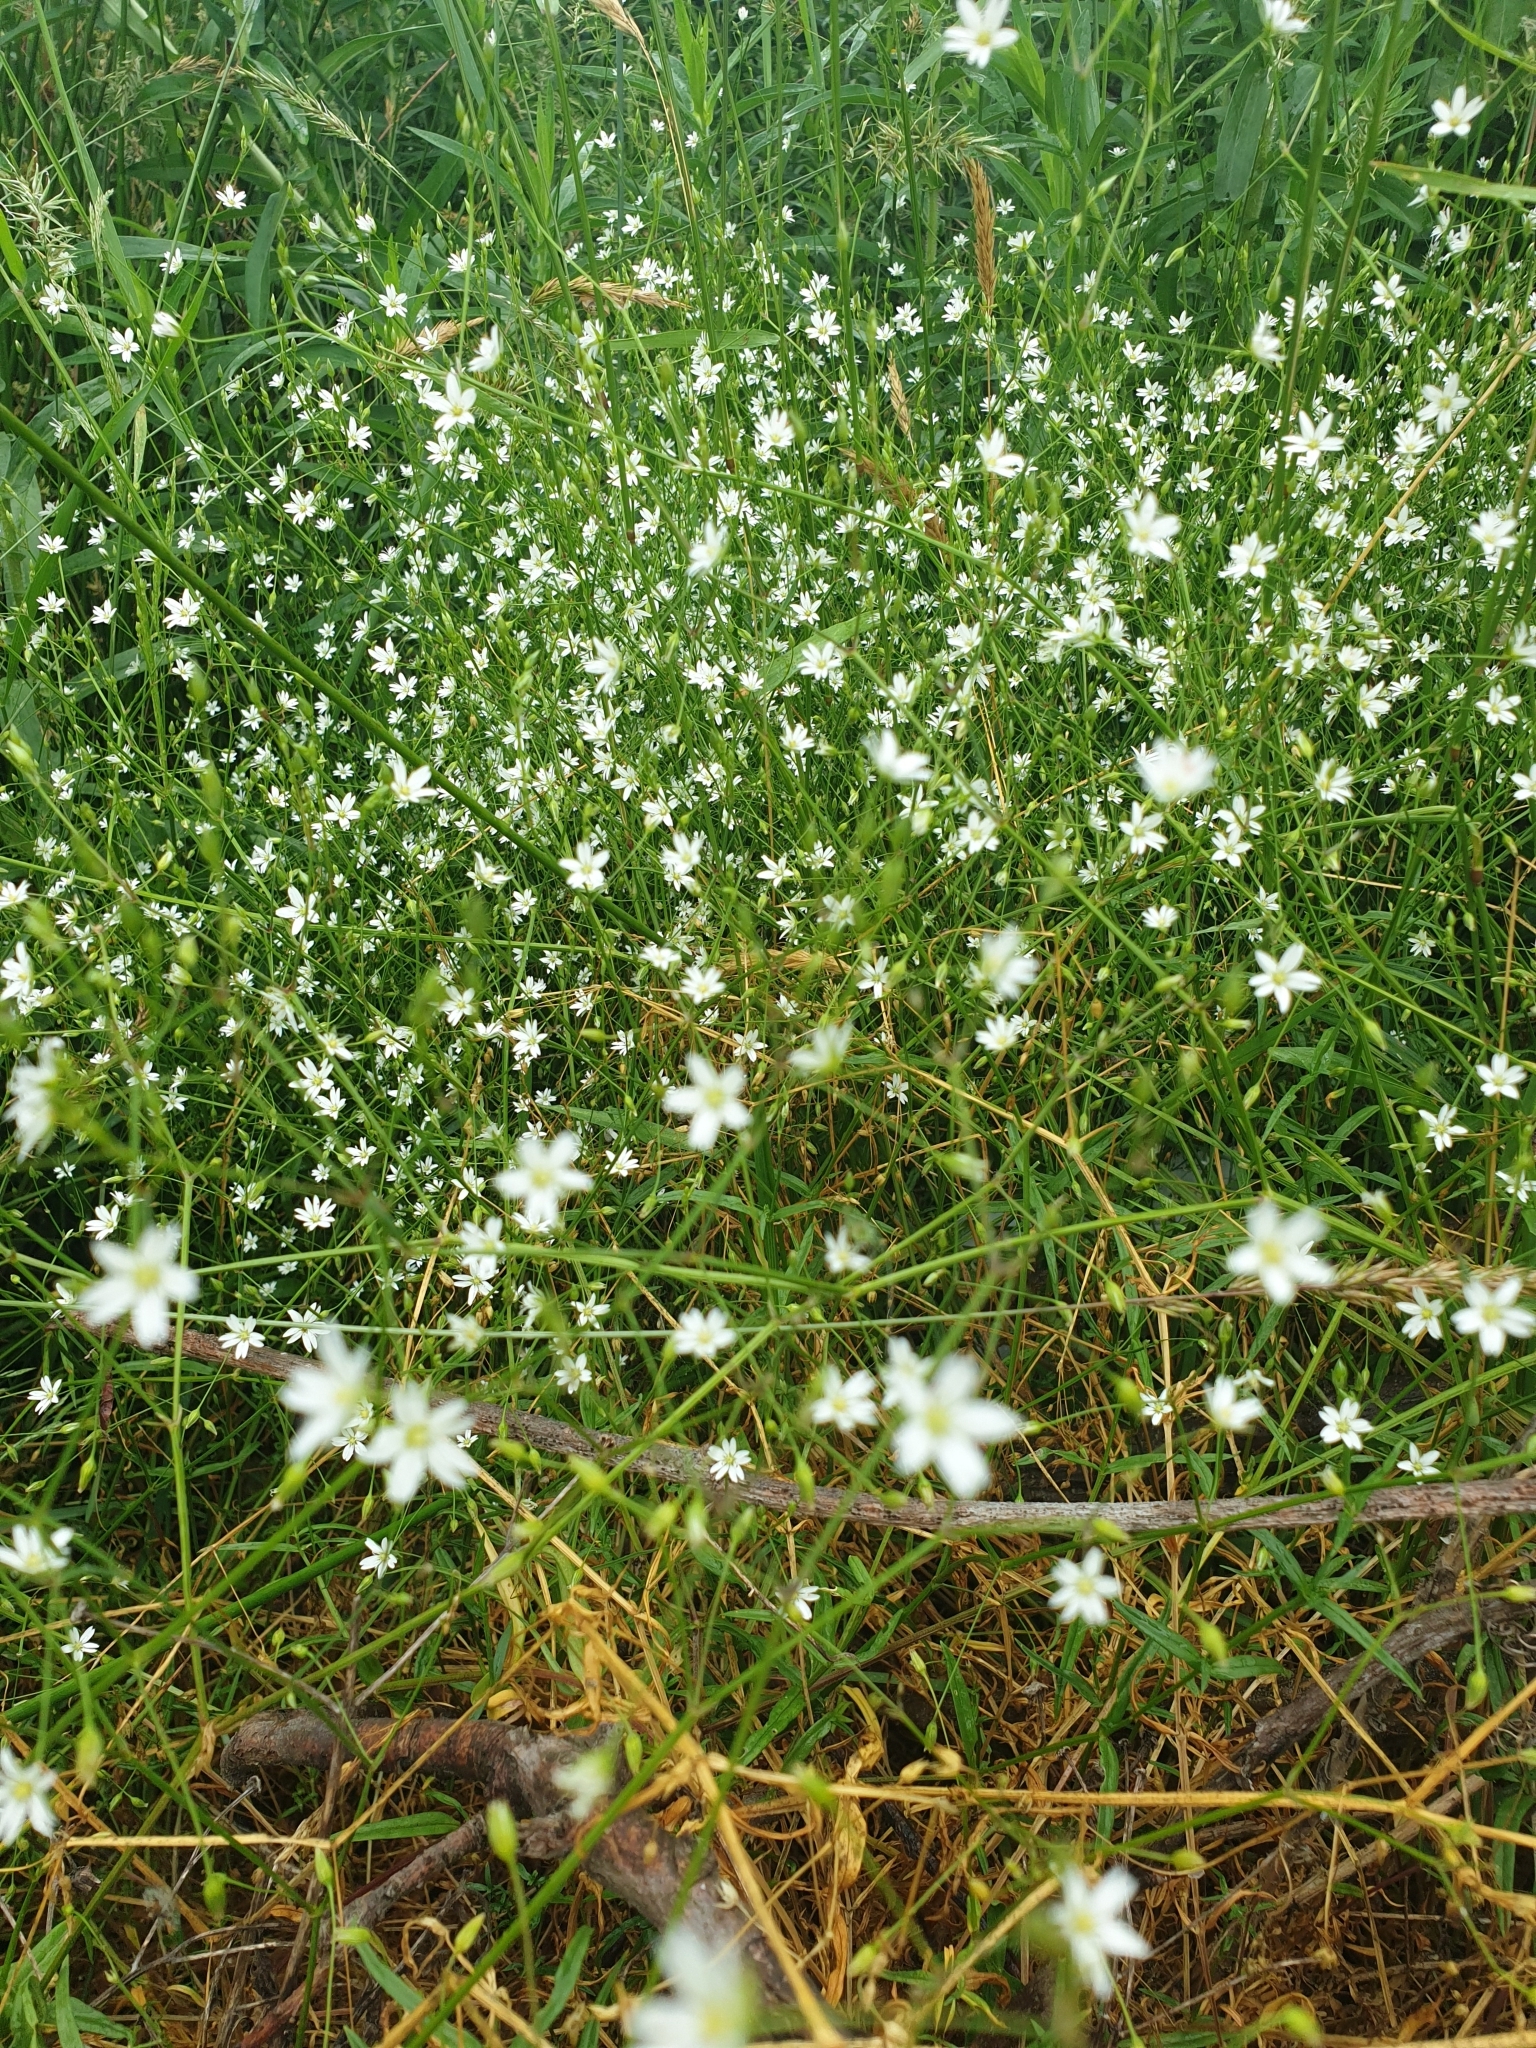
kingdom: Plantae
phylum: Tracheophyta
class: Magnoliopsida
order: Caryophyllales
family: Caryophyllaceae
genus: Stellaria
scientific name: Stellaria graminea
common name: Grass-like starwort
